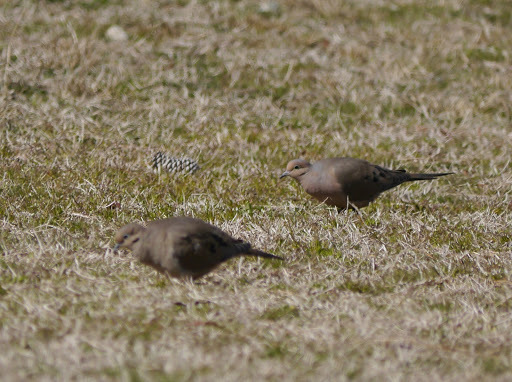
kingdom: Animalia
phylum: Chordata
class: Aves
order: Columbiformes
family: Columbidae
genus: Zenaida
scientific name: Zenaida macroura
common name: Mourning dove
